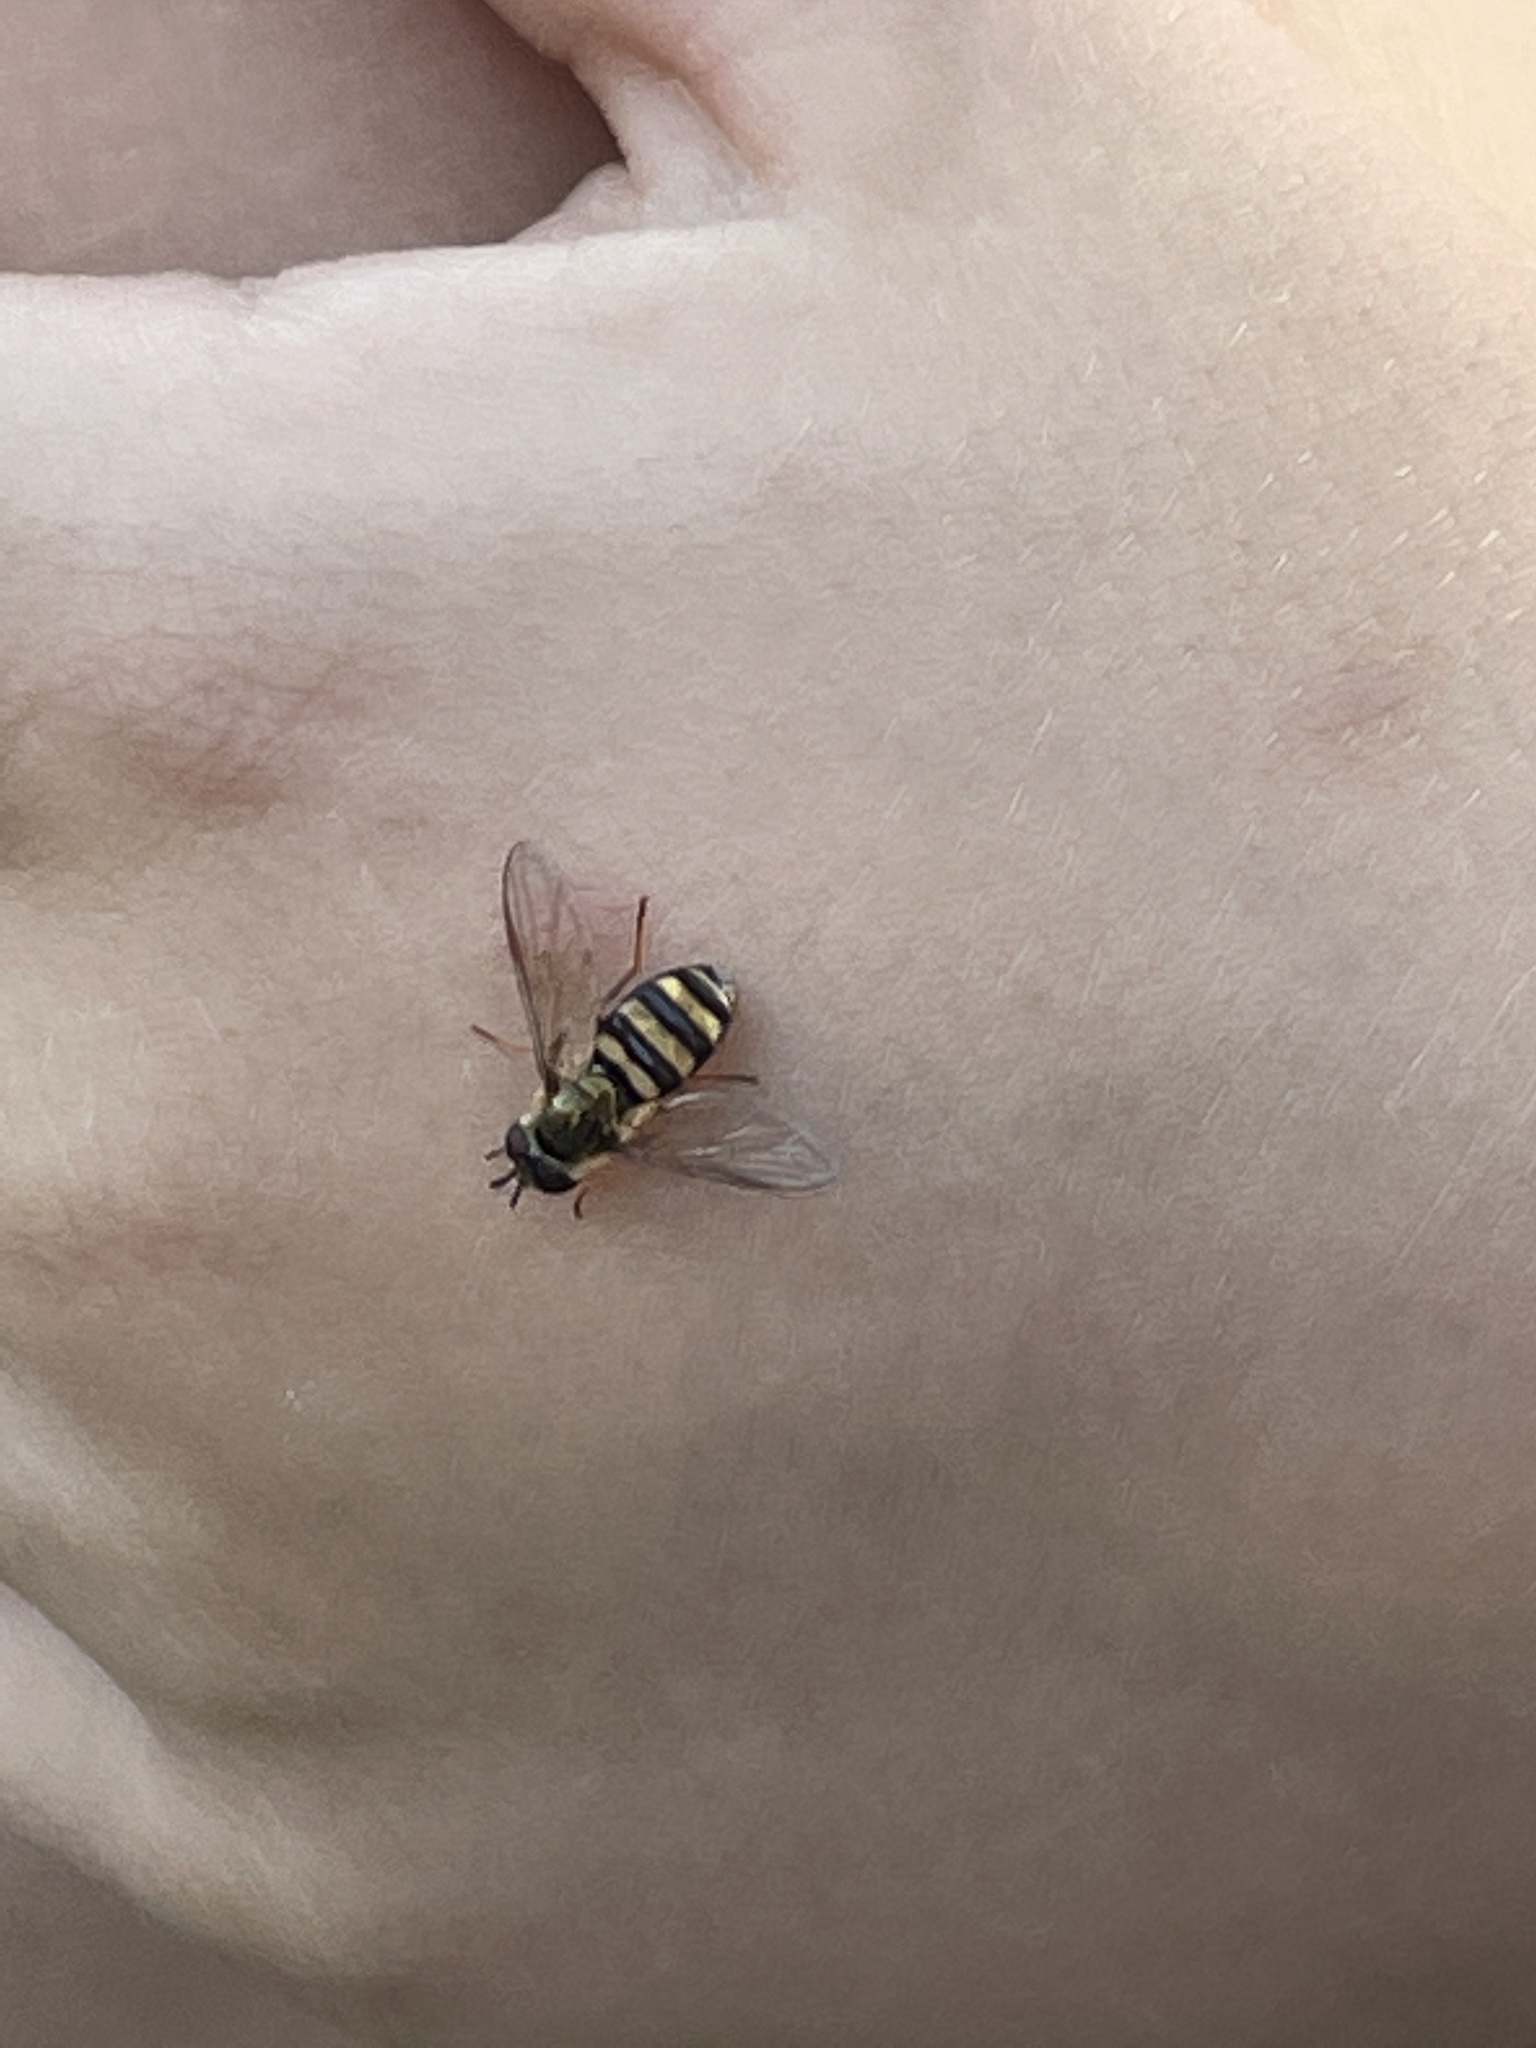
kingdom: Animalia
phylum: Arthropoda
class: Insecta
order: Diptera
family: Syrphidae
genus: Eupeodes
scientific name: Eupeodes
